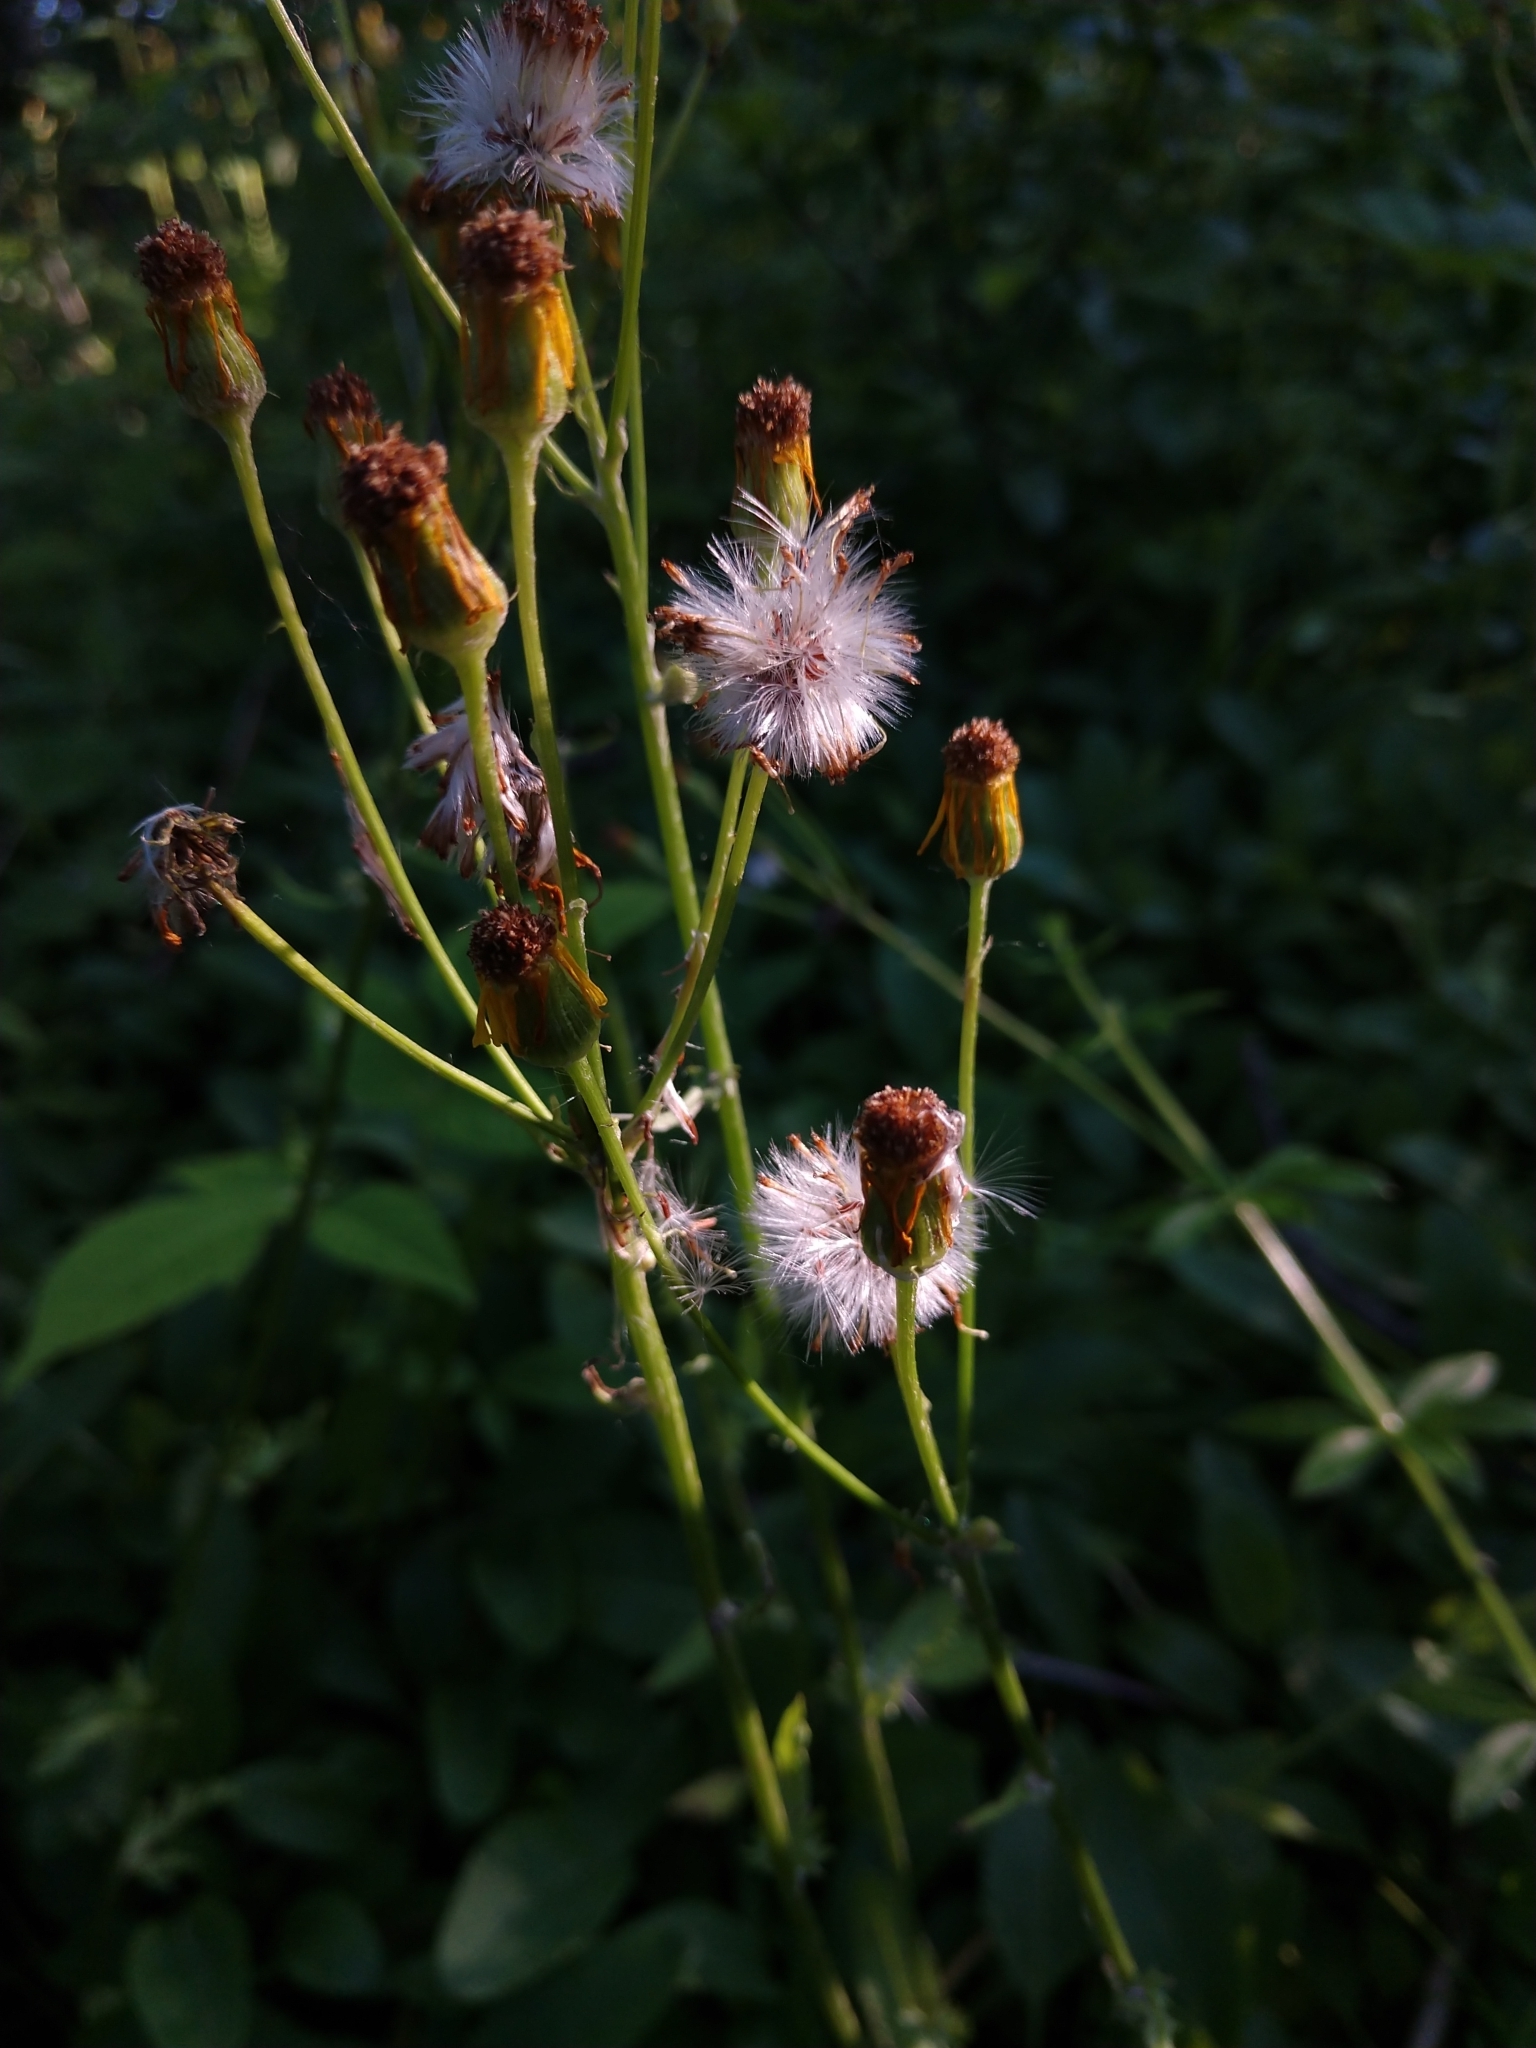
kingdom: Plantae
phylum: Tracheophyta
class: Magnoliopsida
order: Asterales
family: Asteraceae
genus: Packera
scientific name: Packera paupercula
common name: Balsam groundsel
